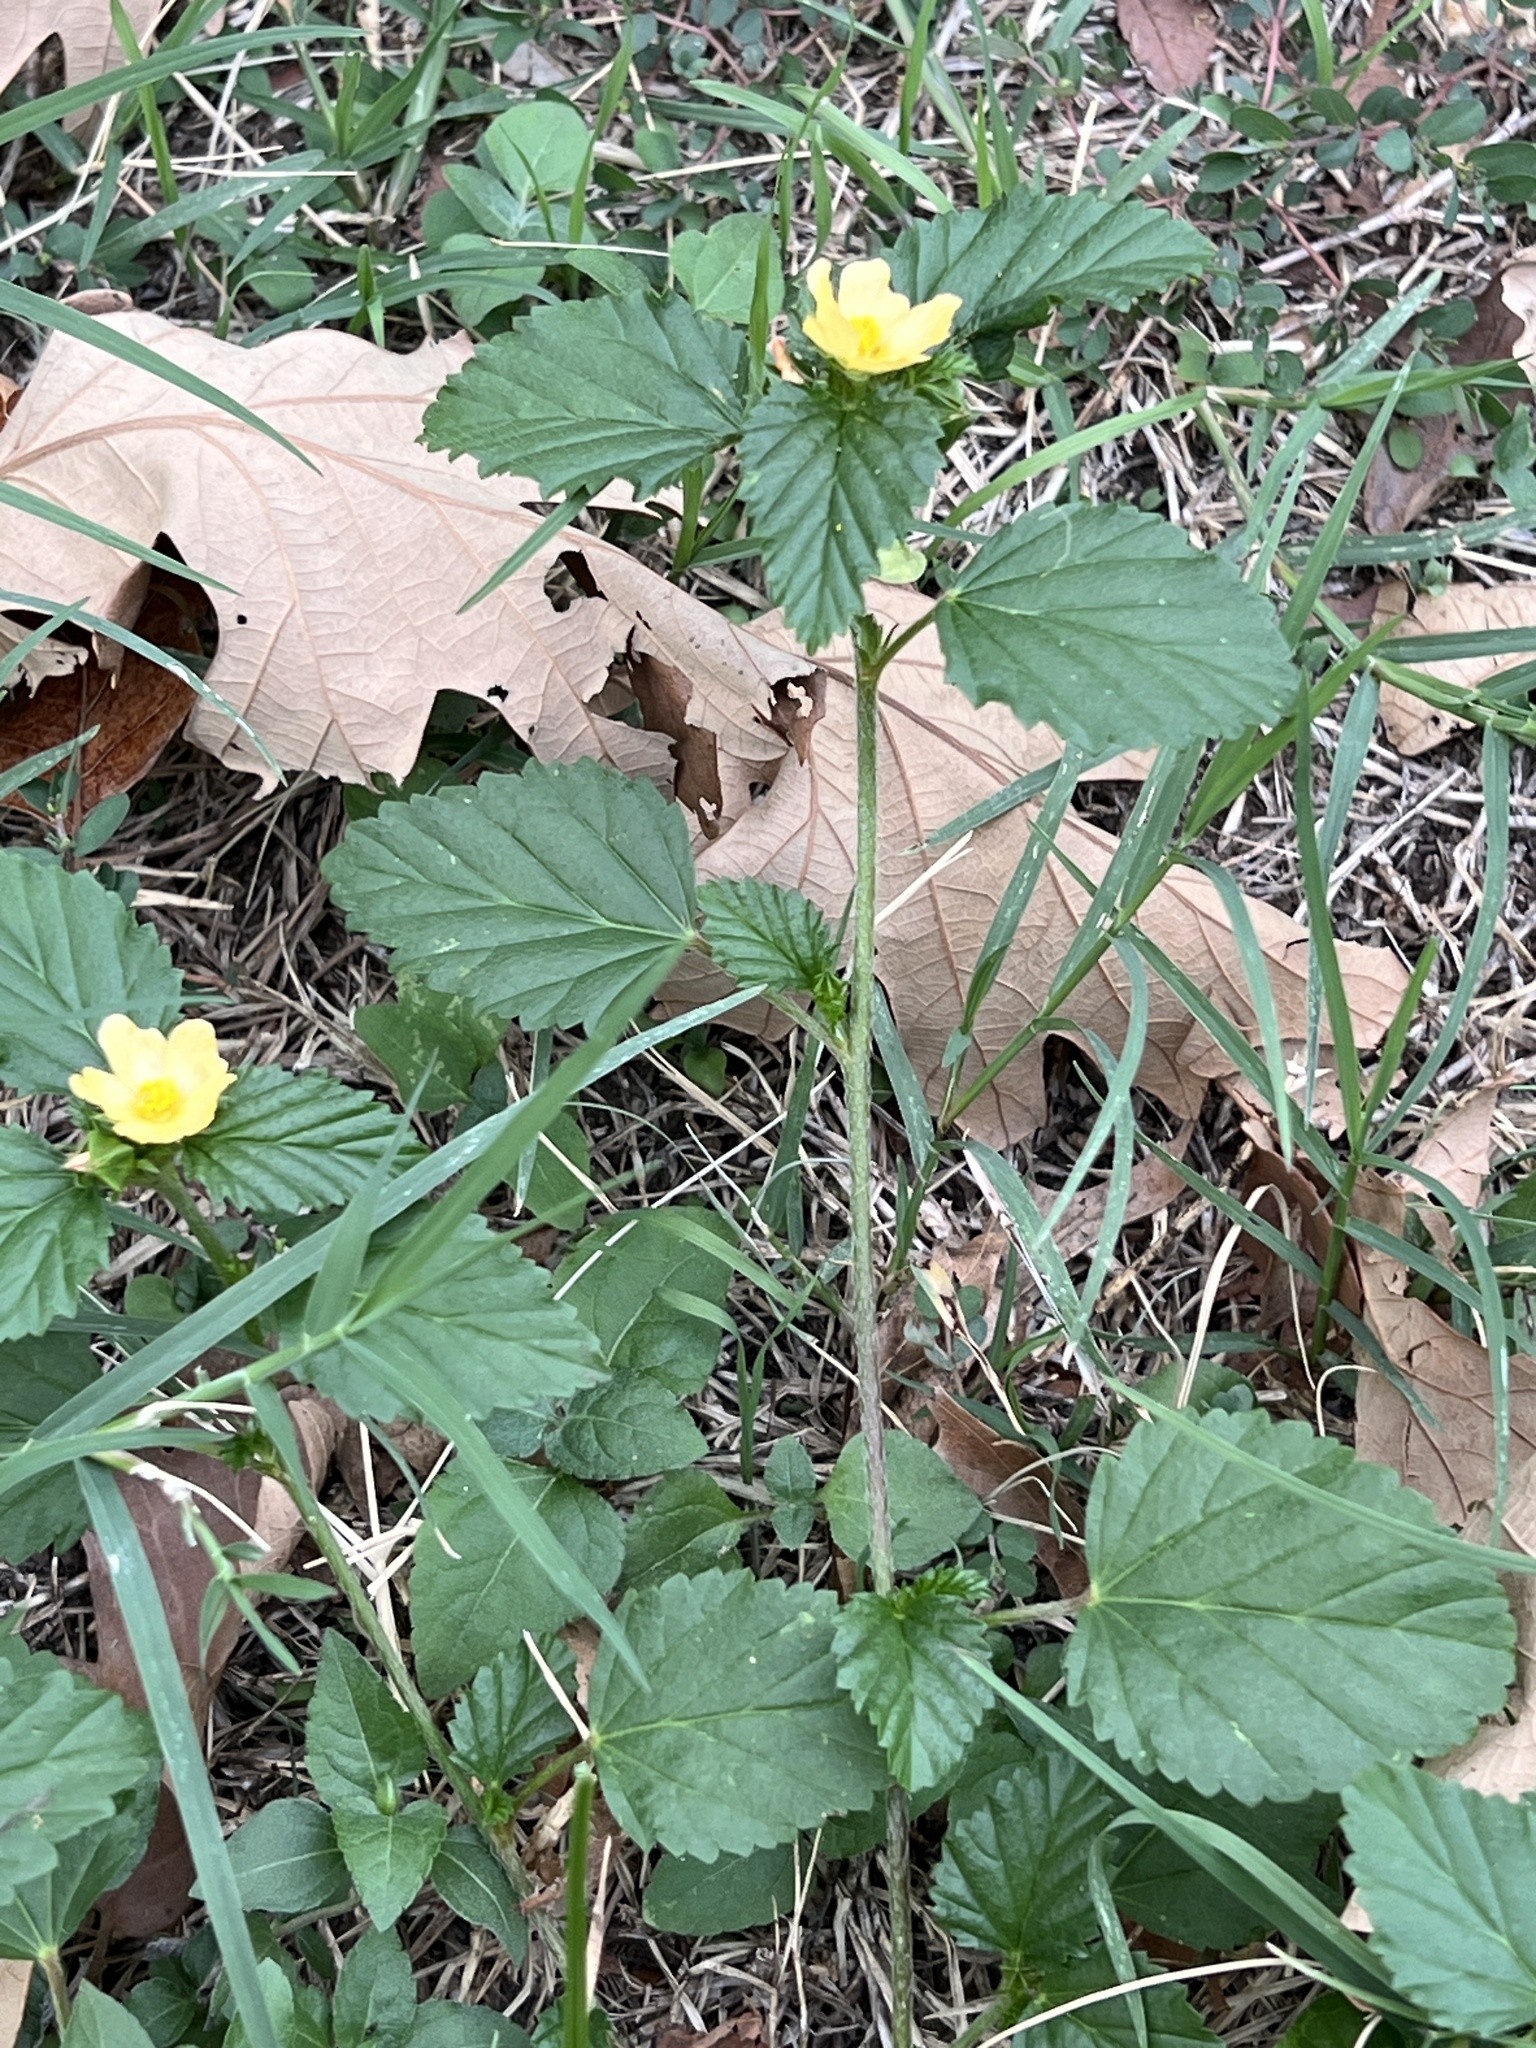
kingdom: Plantae
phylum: Tracheophyta
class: Magnoliopsida
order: Malvales
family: Malvaceae
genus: Malvastrum
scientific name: Malvastrum coromandelianum
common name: Threelobe false mallow
